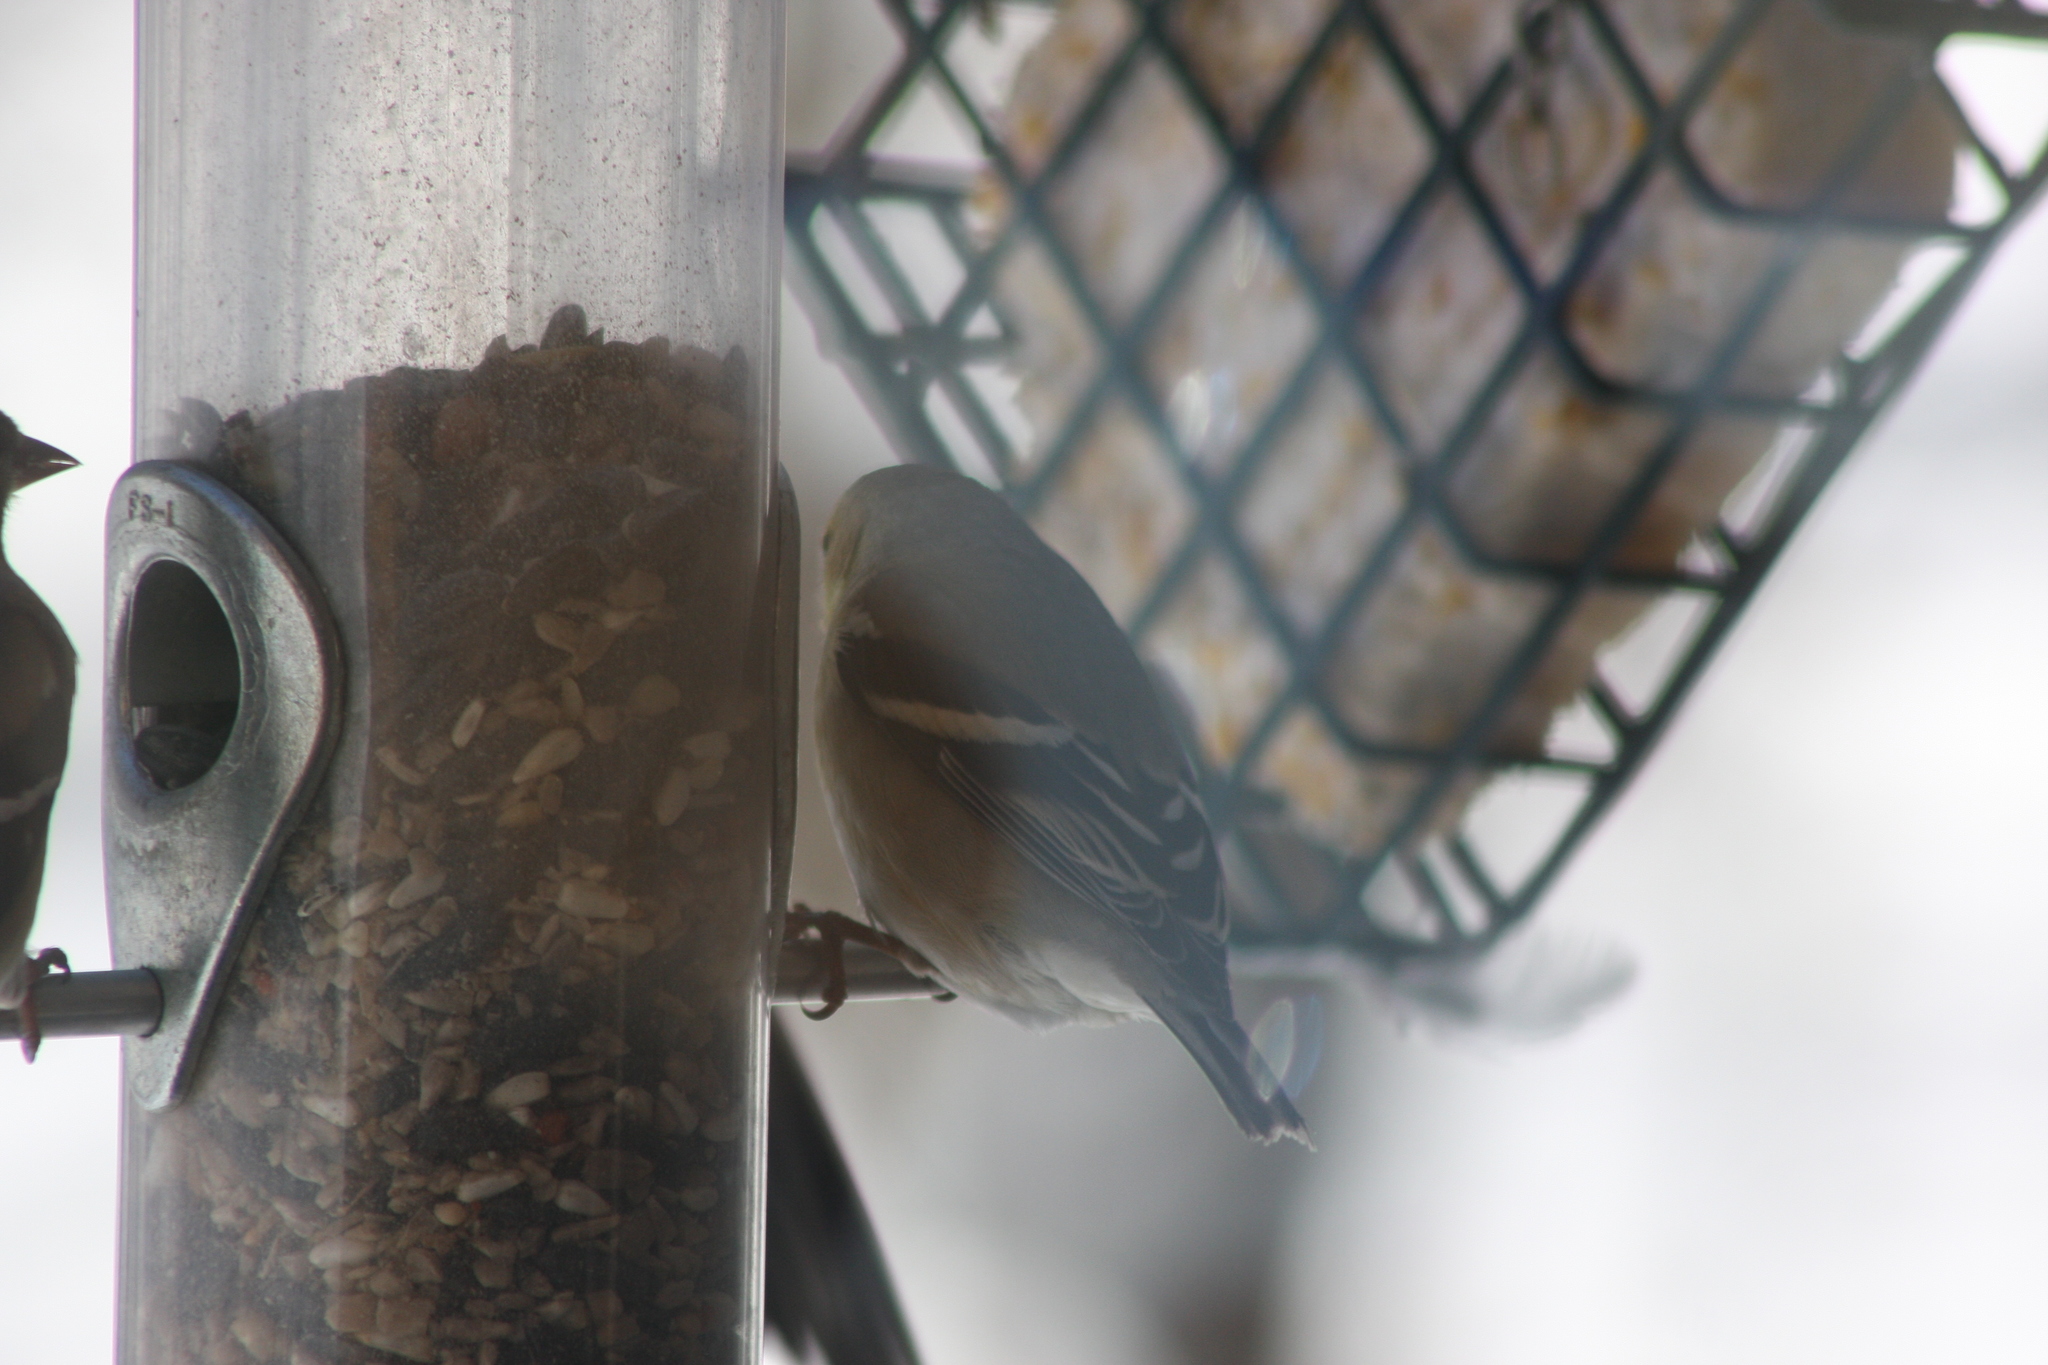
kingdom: Animalia
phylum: Chordata
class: Aves
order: Passeriformes
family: Fringillidae
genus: Spinus
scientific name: Spinus tristis
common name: American goldfinch
